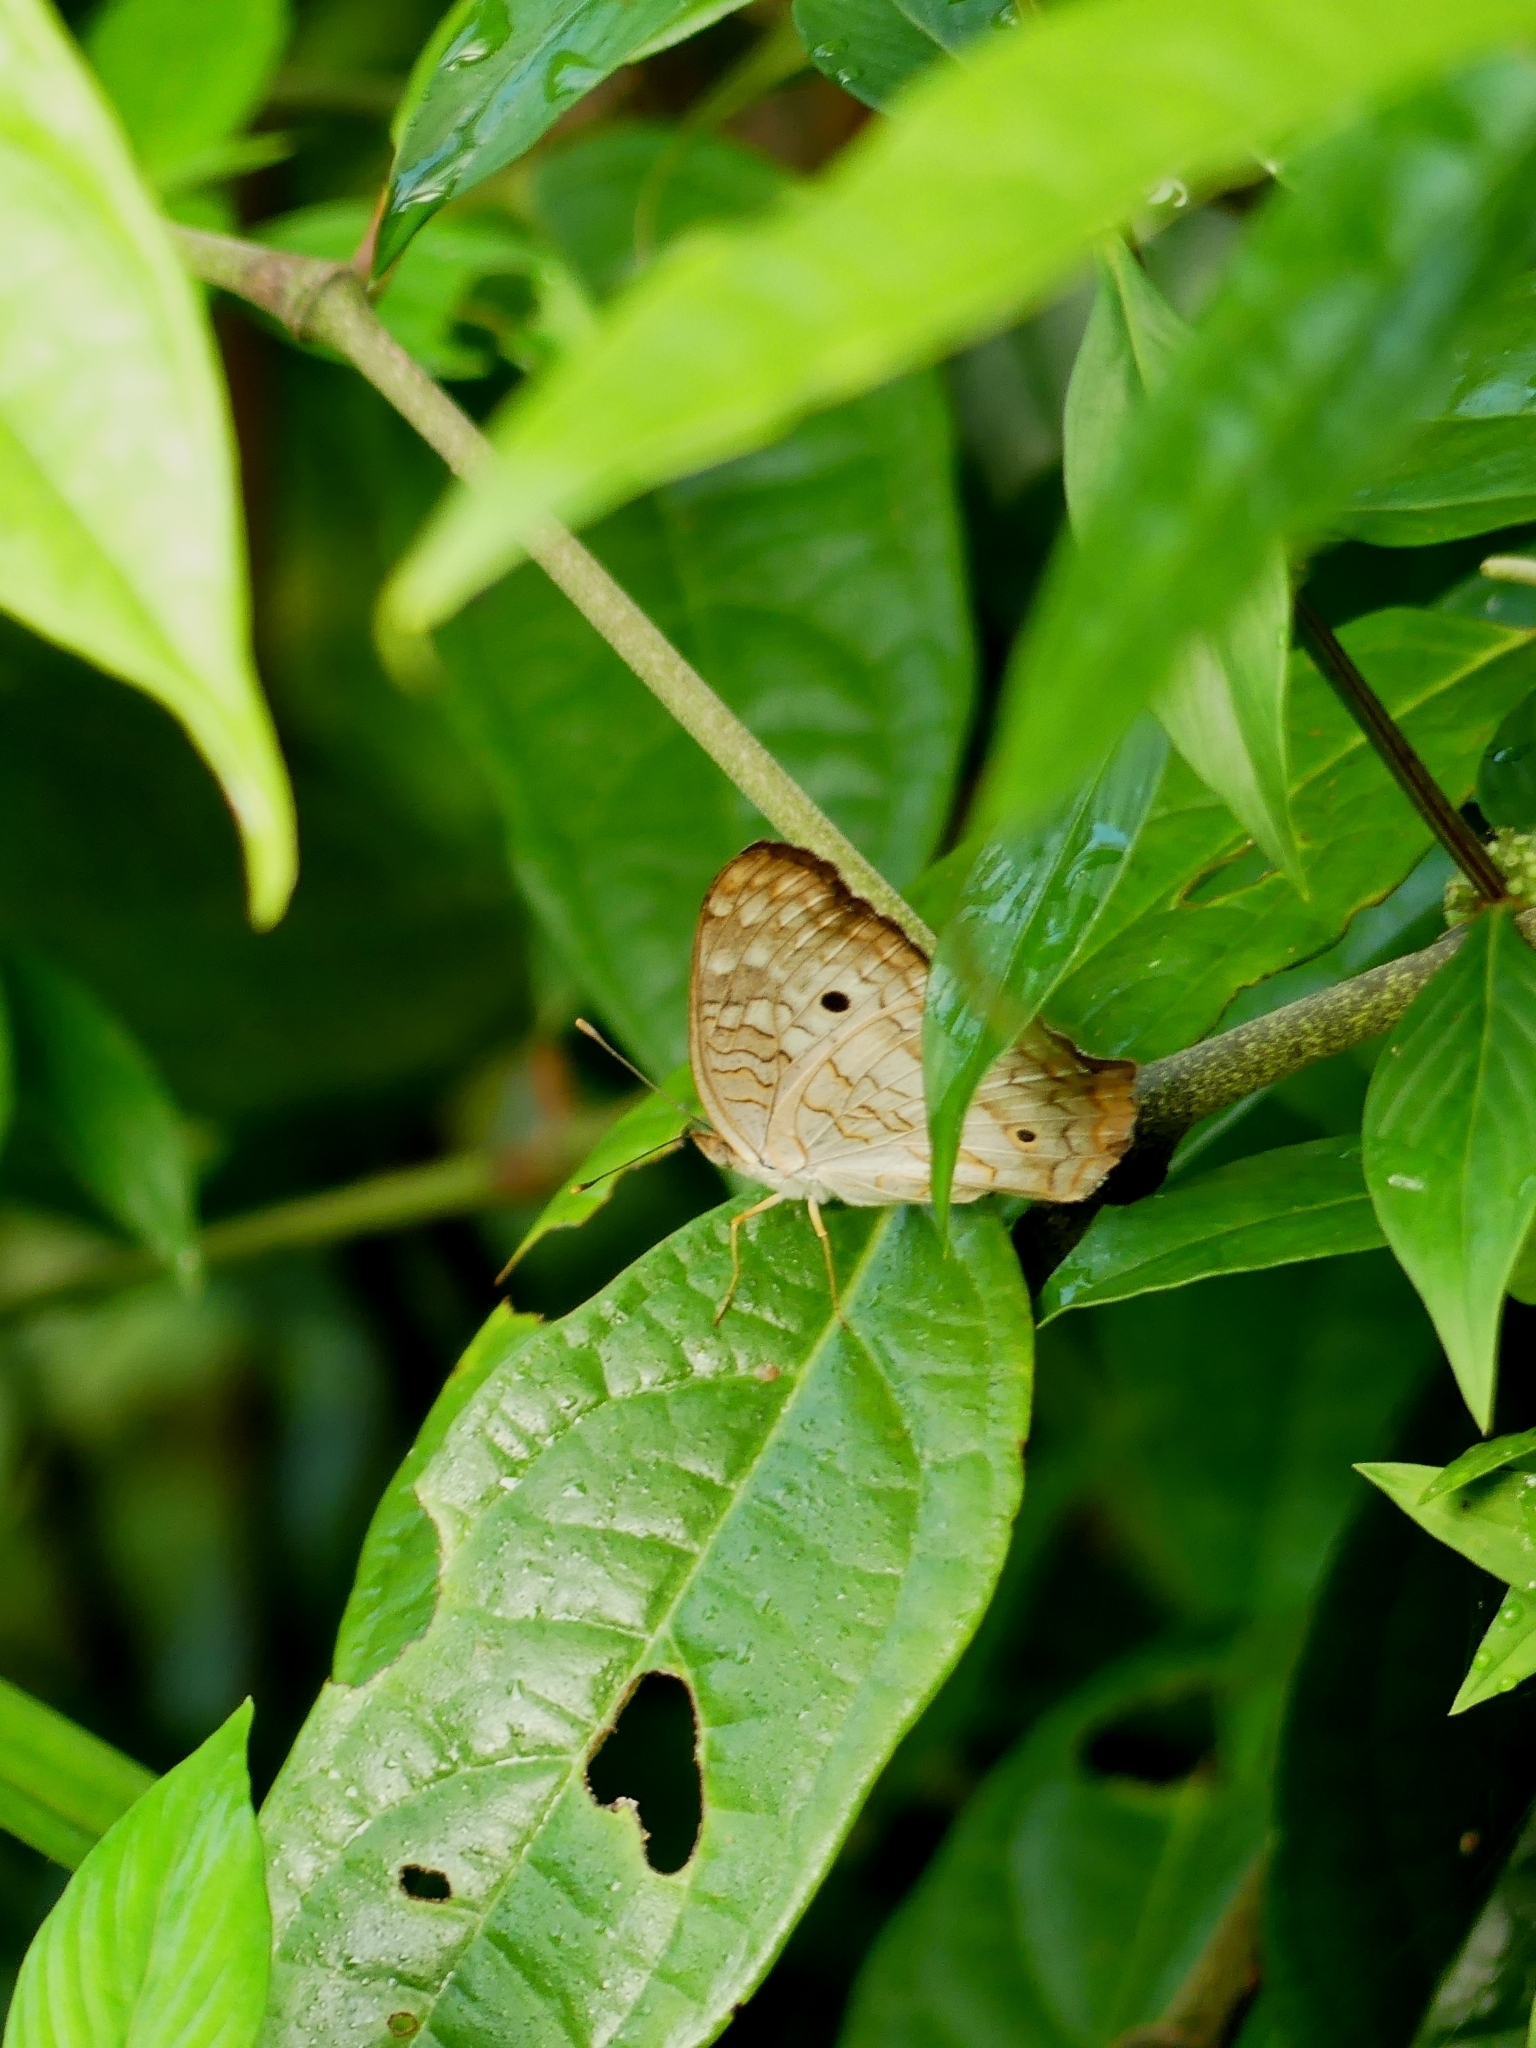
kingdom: Animalia
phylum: Arthropoda
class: Insecta
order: Lepidoptera
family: Nymphalidae
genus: Anartia
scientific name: Anartia jatrophae
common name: White peacock
